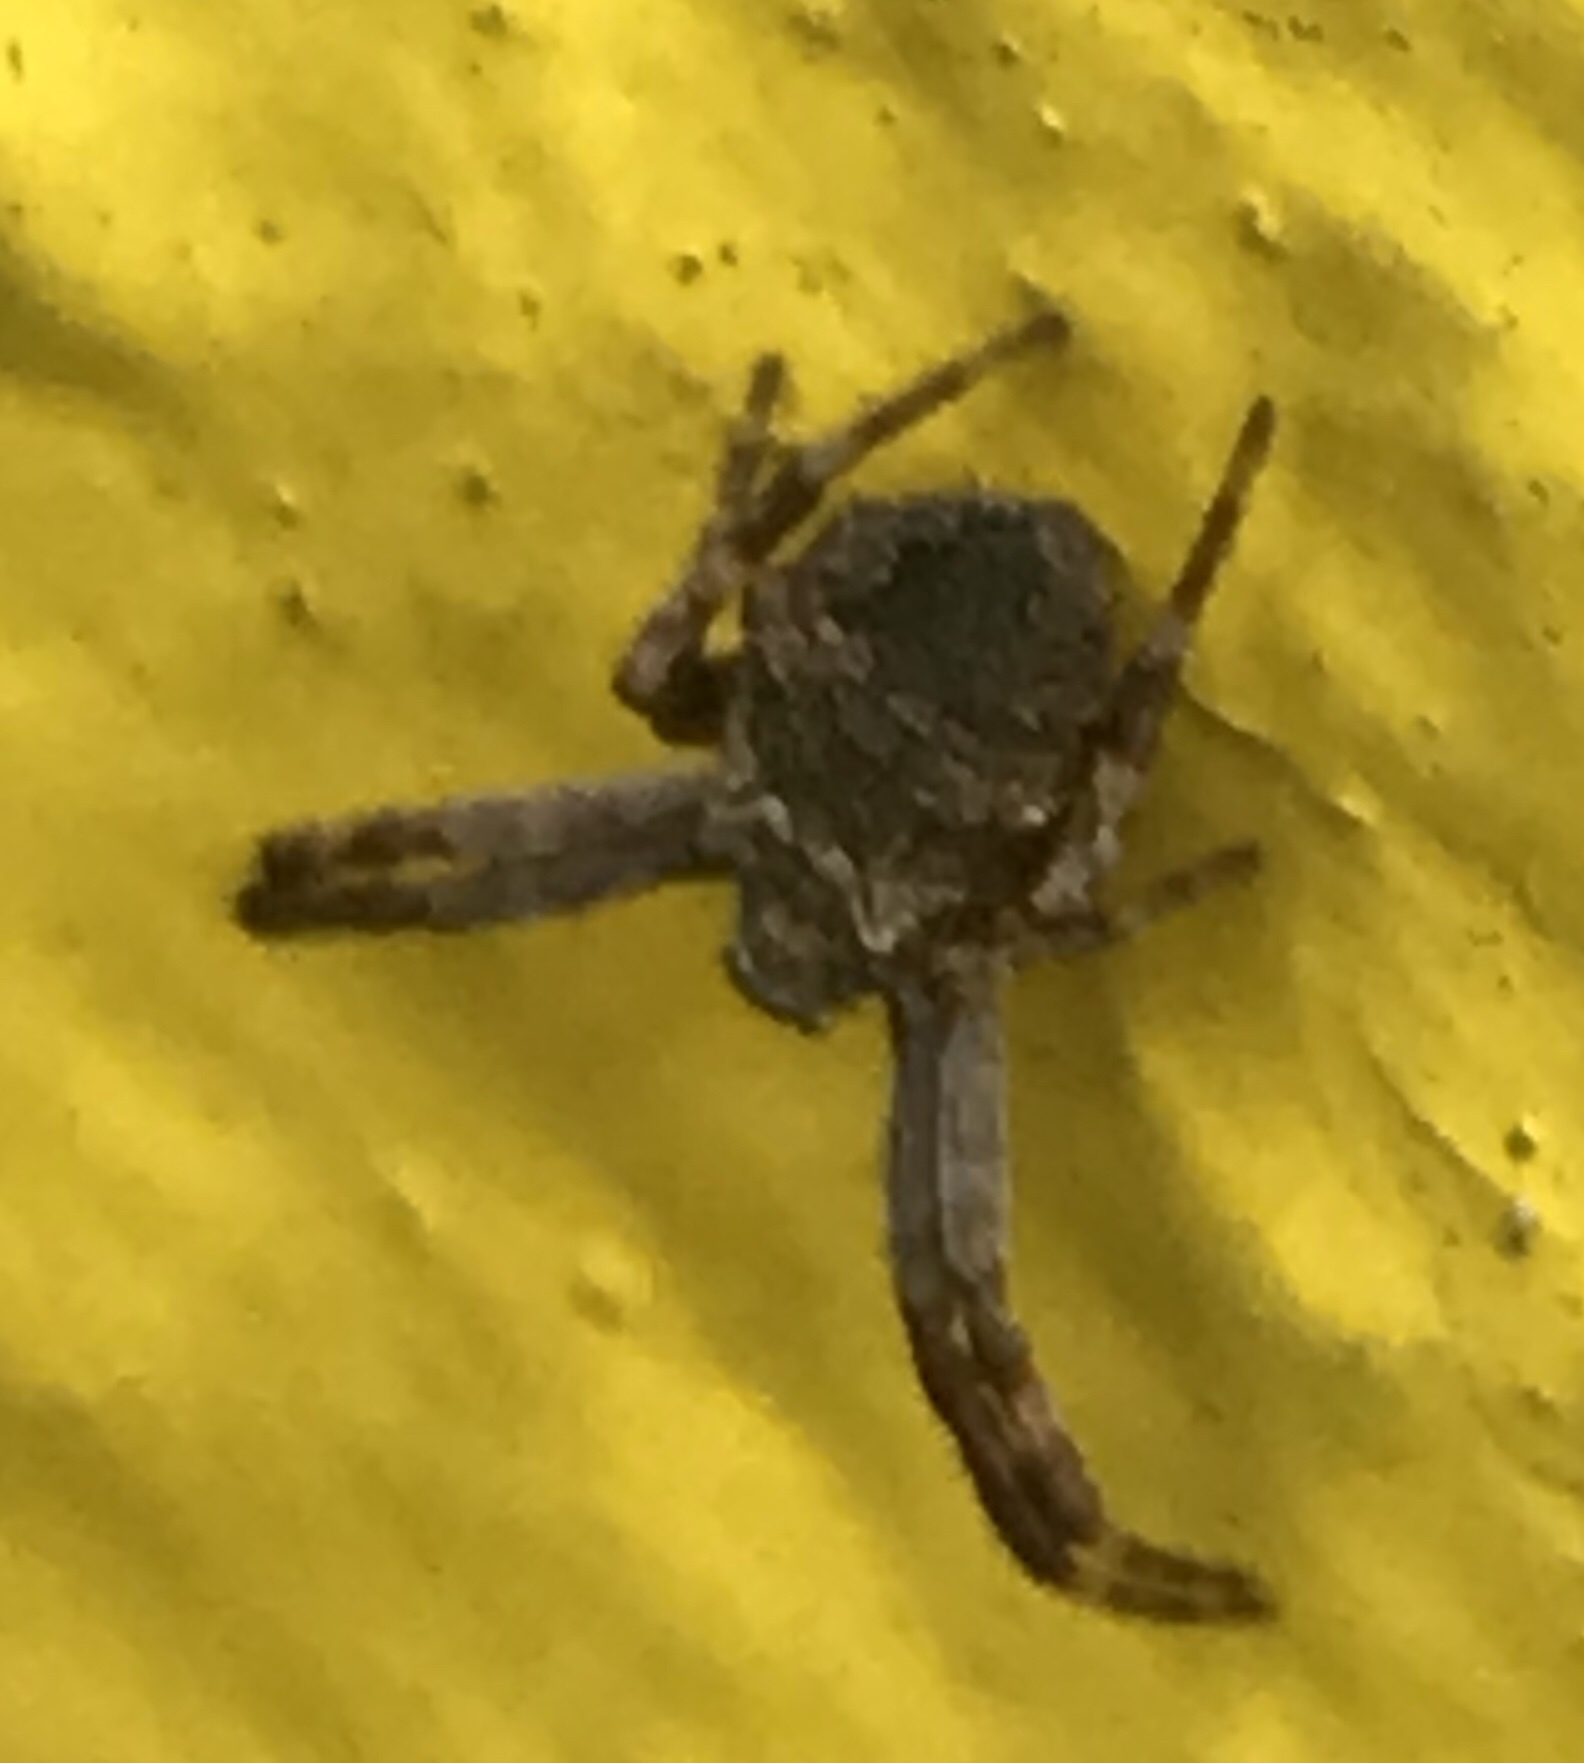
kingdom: Animalia
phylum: Arthropoda
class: Arachnida
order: Araneae
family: Araneidae
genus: Gea
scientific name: Gea heptagon
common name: Orb weavers
